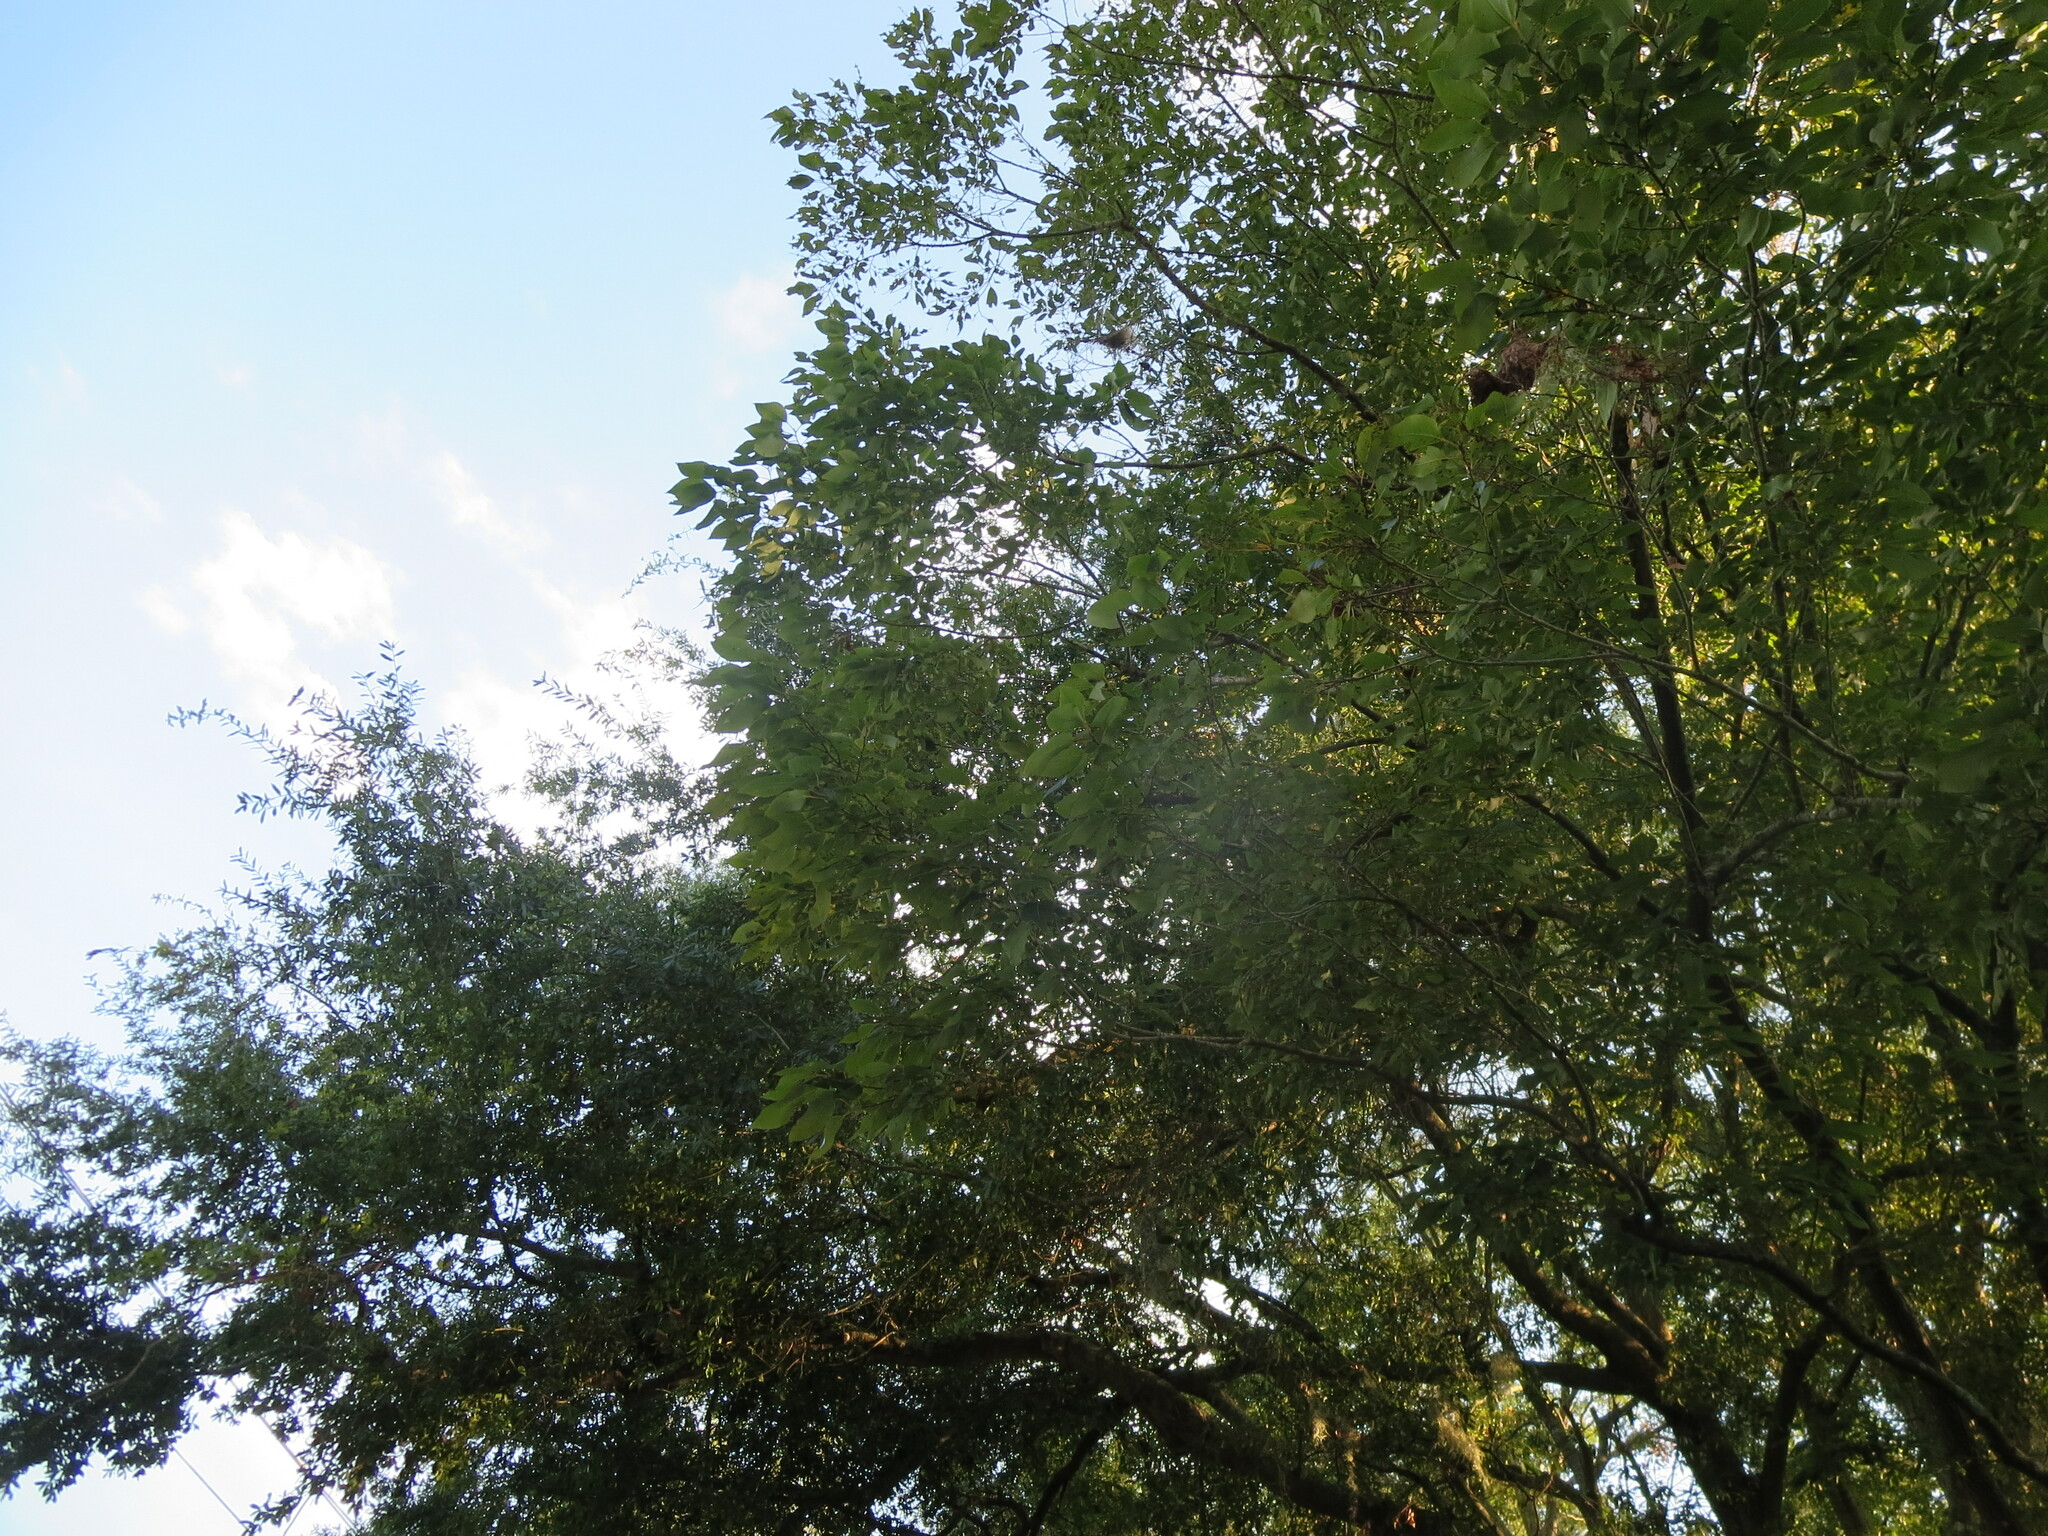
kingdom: Plantae
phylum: Tracheophyta
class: Magnoliopsida
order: Ericales
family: Ebenaceae
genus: Diospyros
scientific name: Diospyros virginiana
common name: Persimmon
